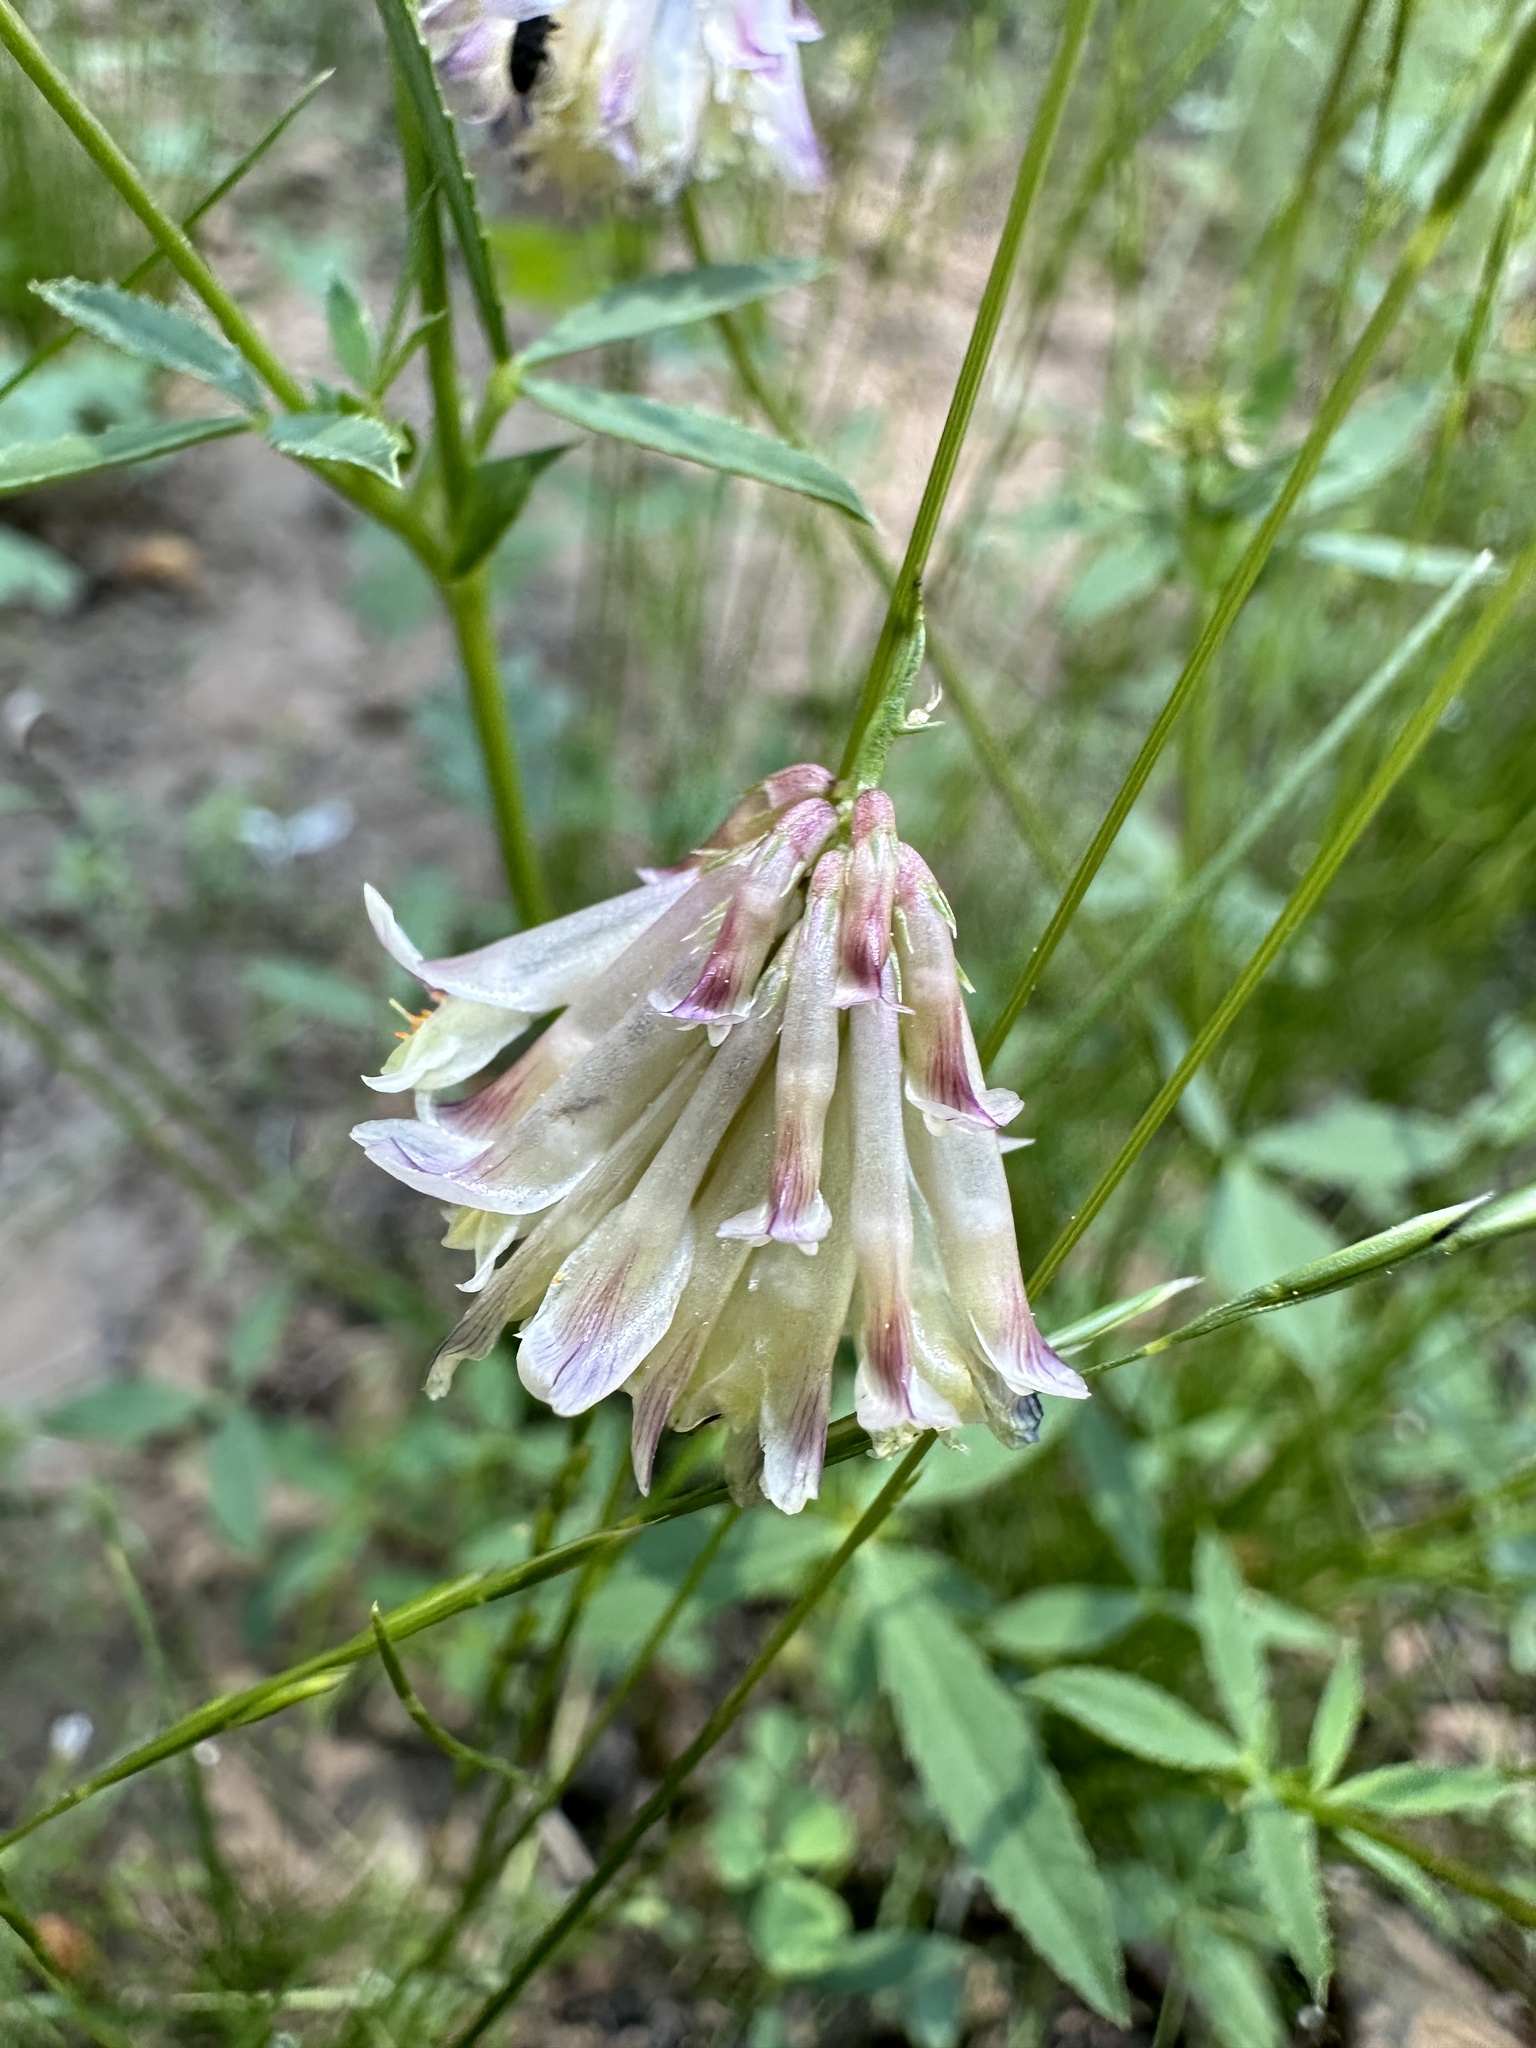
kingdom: Plantae
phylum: Tracheophyta
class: Magnoliopsida
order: Fabales
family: Fabaceae
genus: Trifolium
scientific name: Trifolium productum
